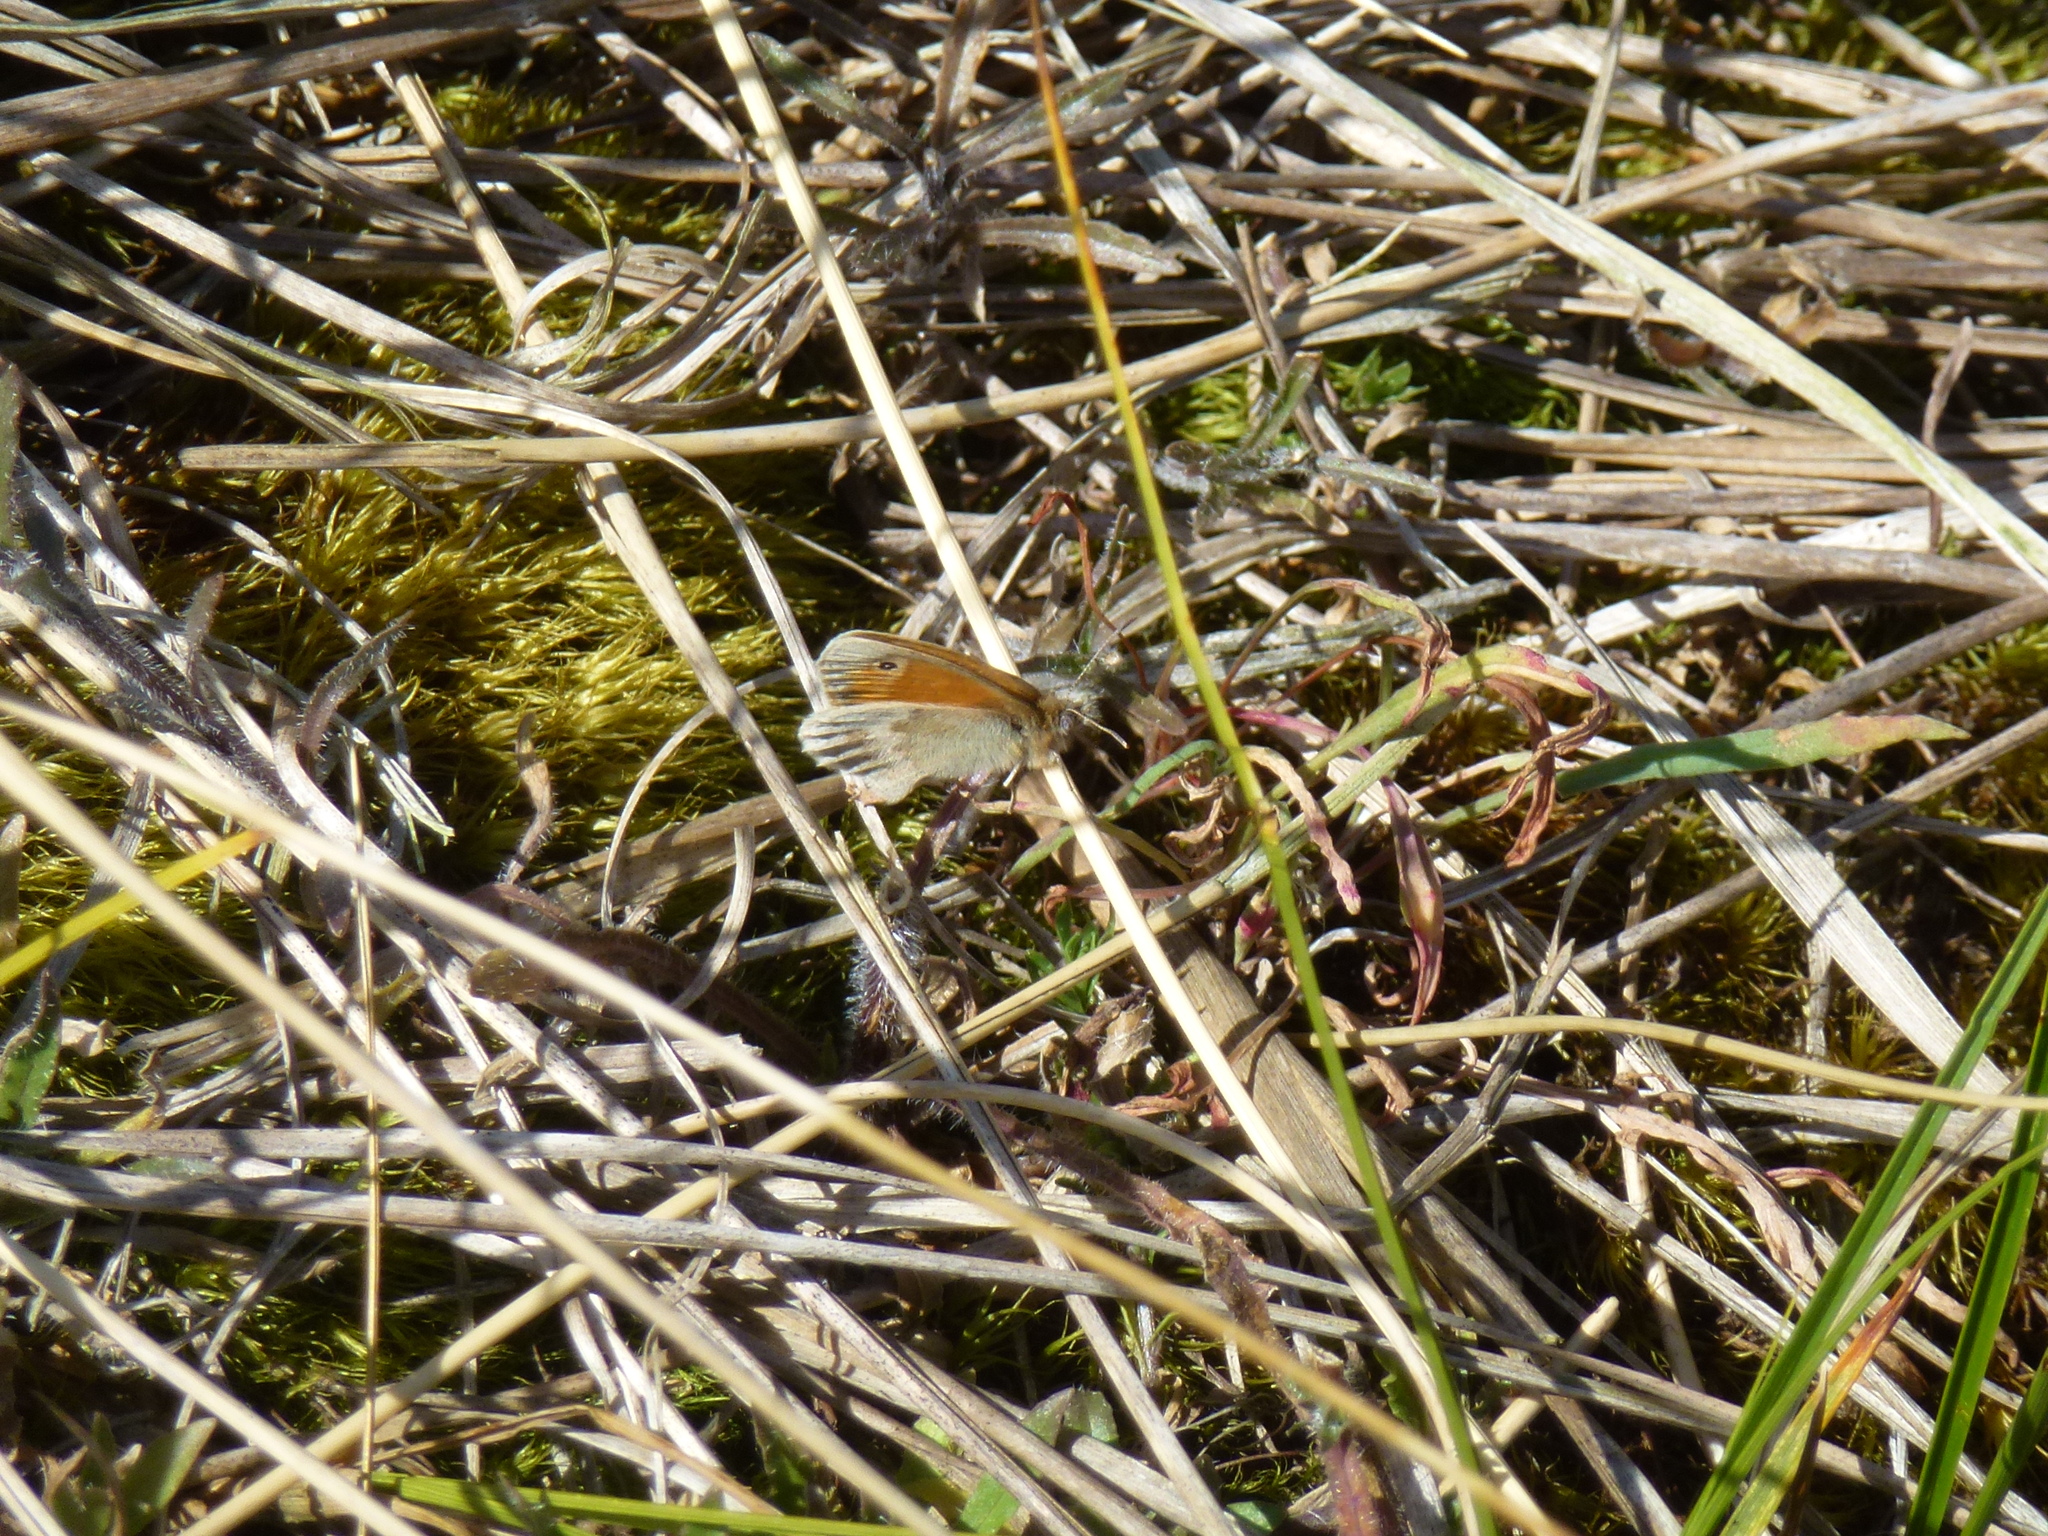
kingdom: Animalia
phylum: Arthropoda
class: Insecta
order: Lepidoptera
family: Nymphalidae
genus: Coenonympha
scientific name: Coenonympha pamphilus
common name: Small heath
